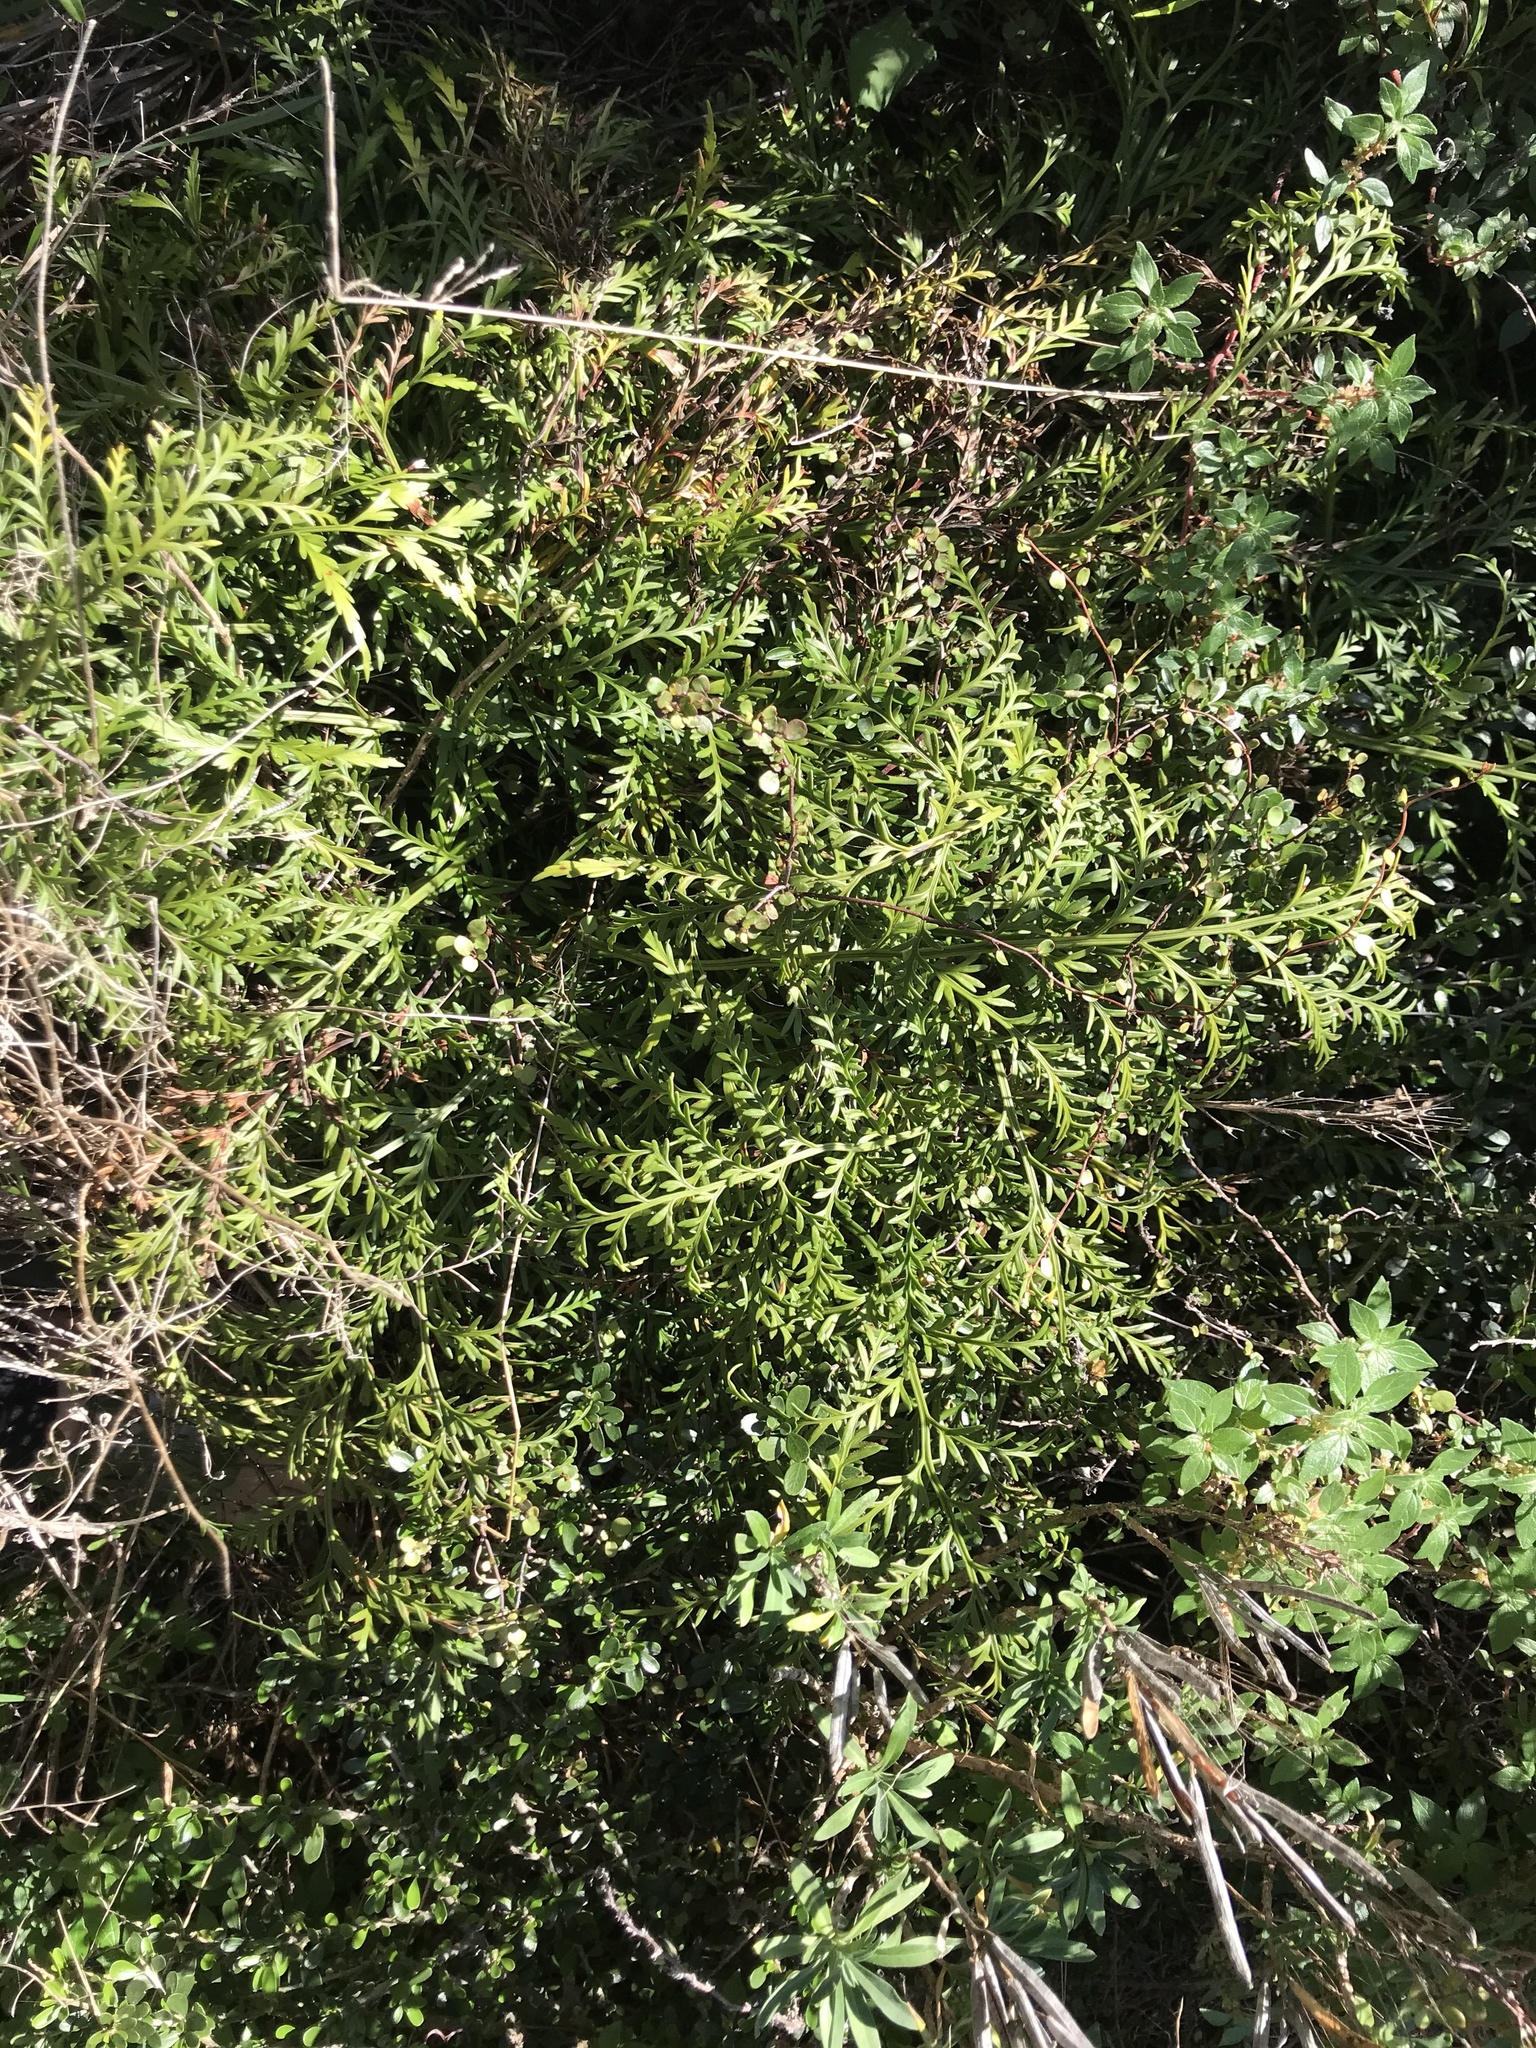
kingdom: Plantae
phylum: Tracheophyta
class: Polypodiopsida
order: Polypodiales
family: Aspleniaceae
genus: Asplenium
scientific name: Asplenium appendiculatum
